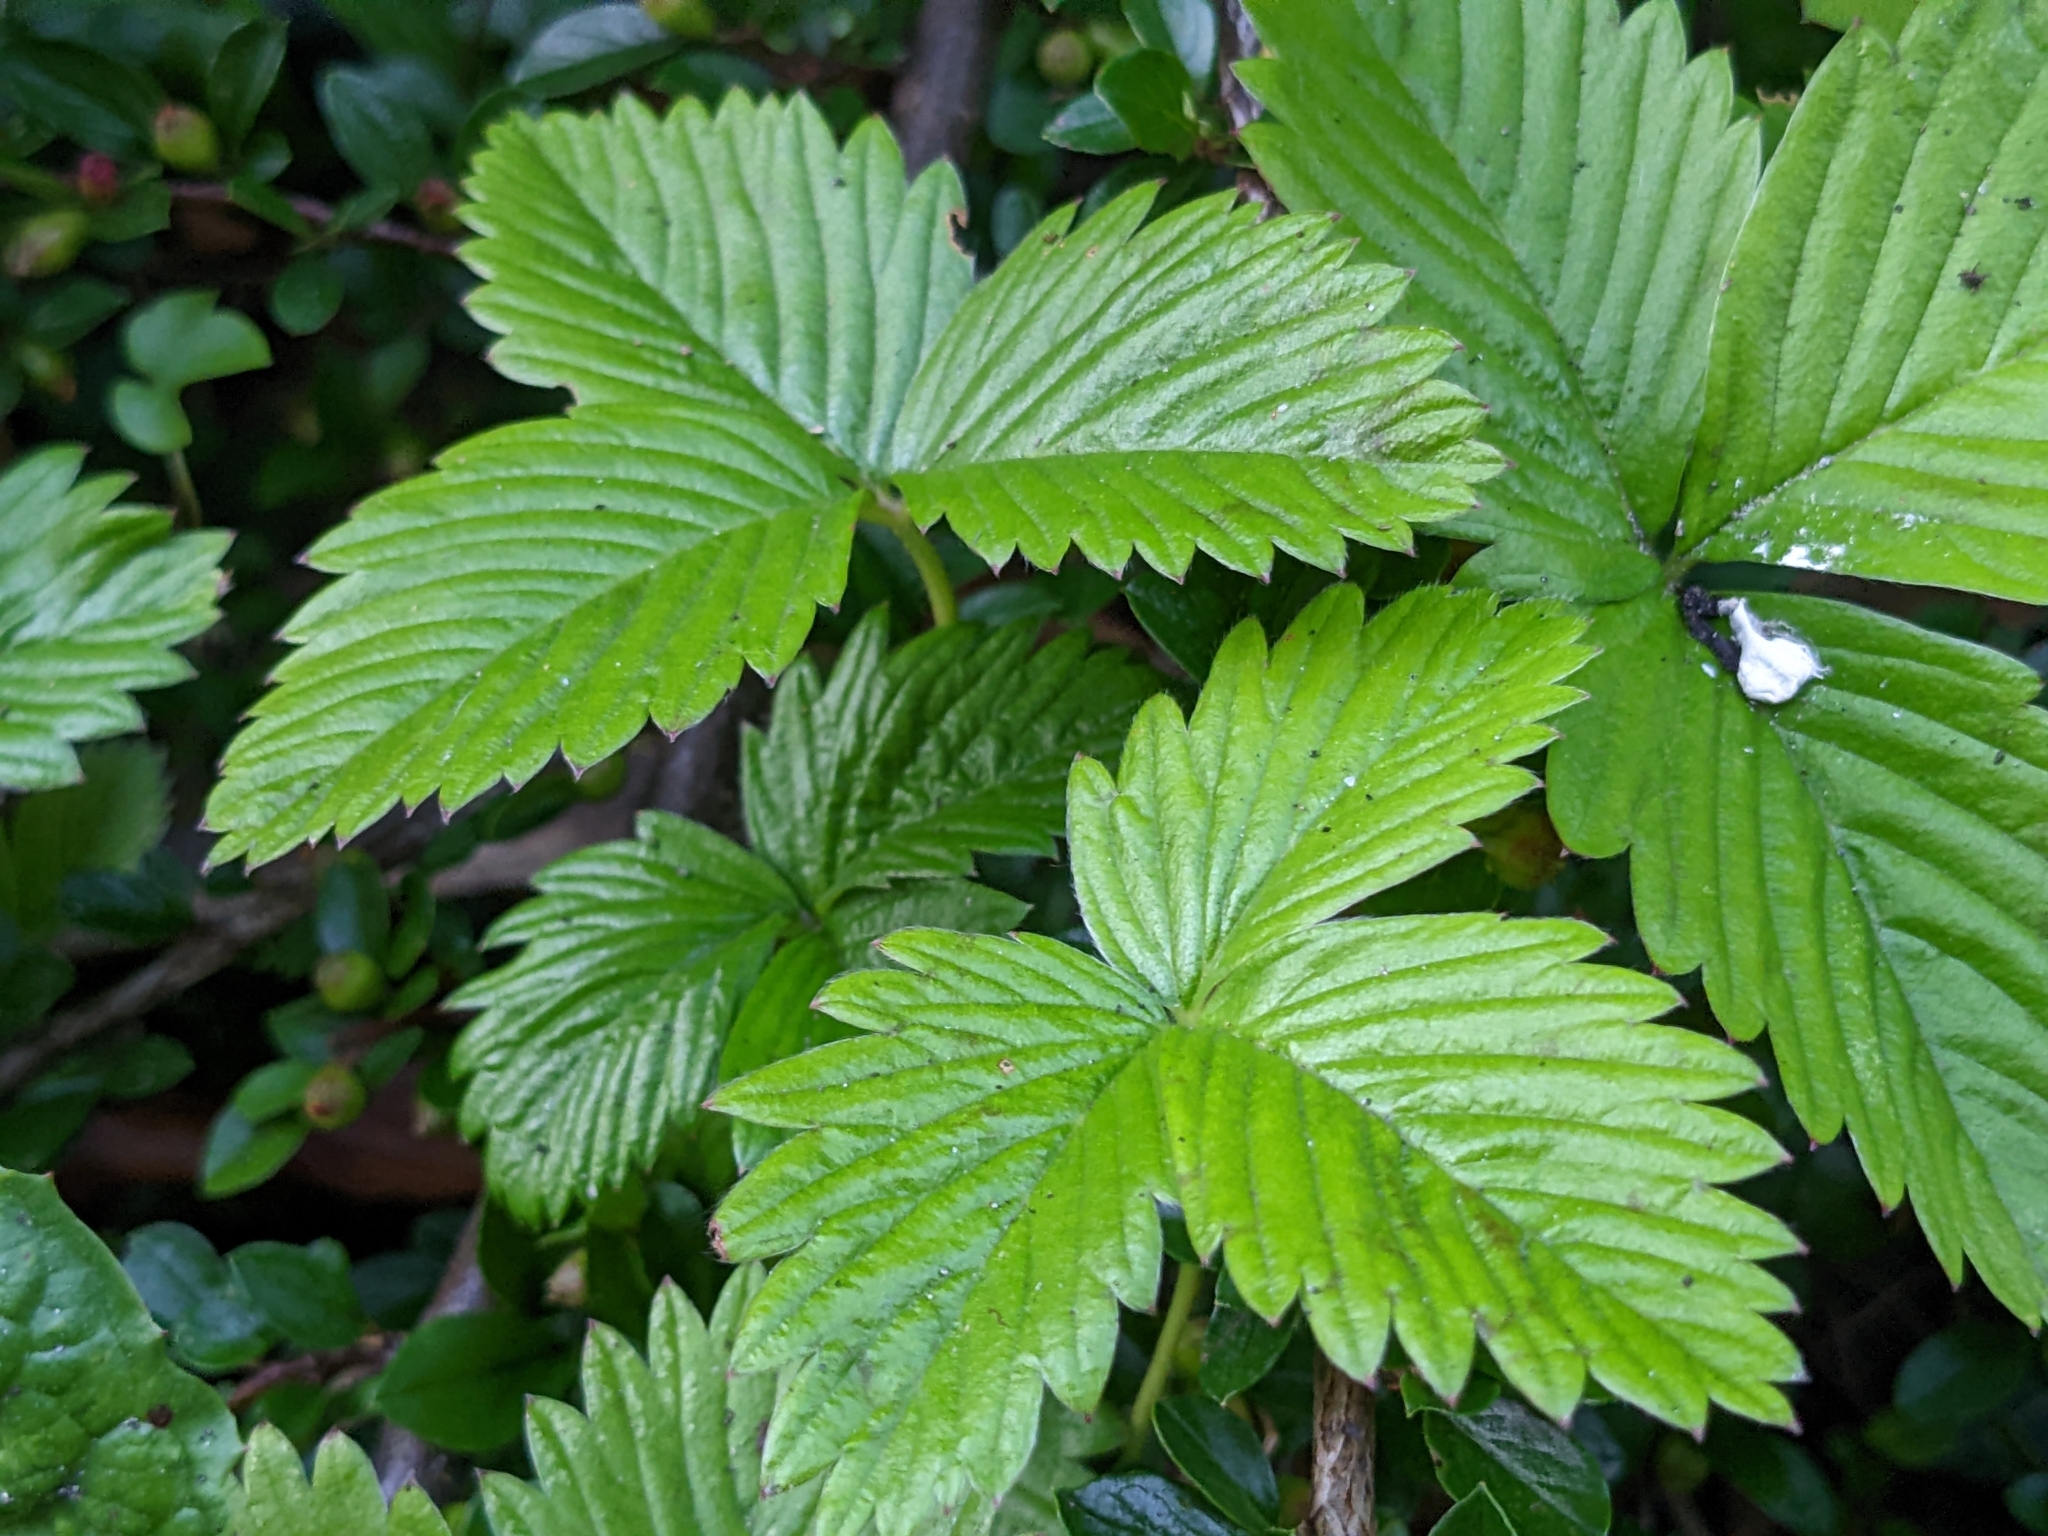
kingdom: Plantae
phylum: Tracheophyta
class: Magnoliopsida
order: Rosales
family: Rosaceae
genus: Fragaria
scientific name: Fragaria vesca
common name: Wild strawberry
